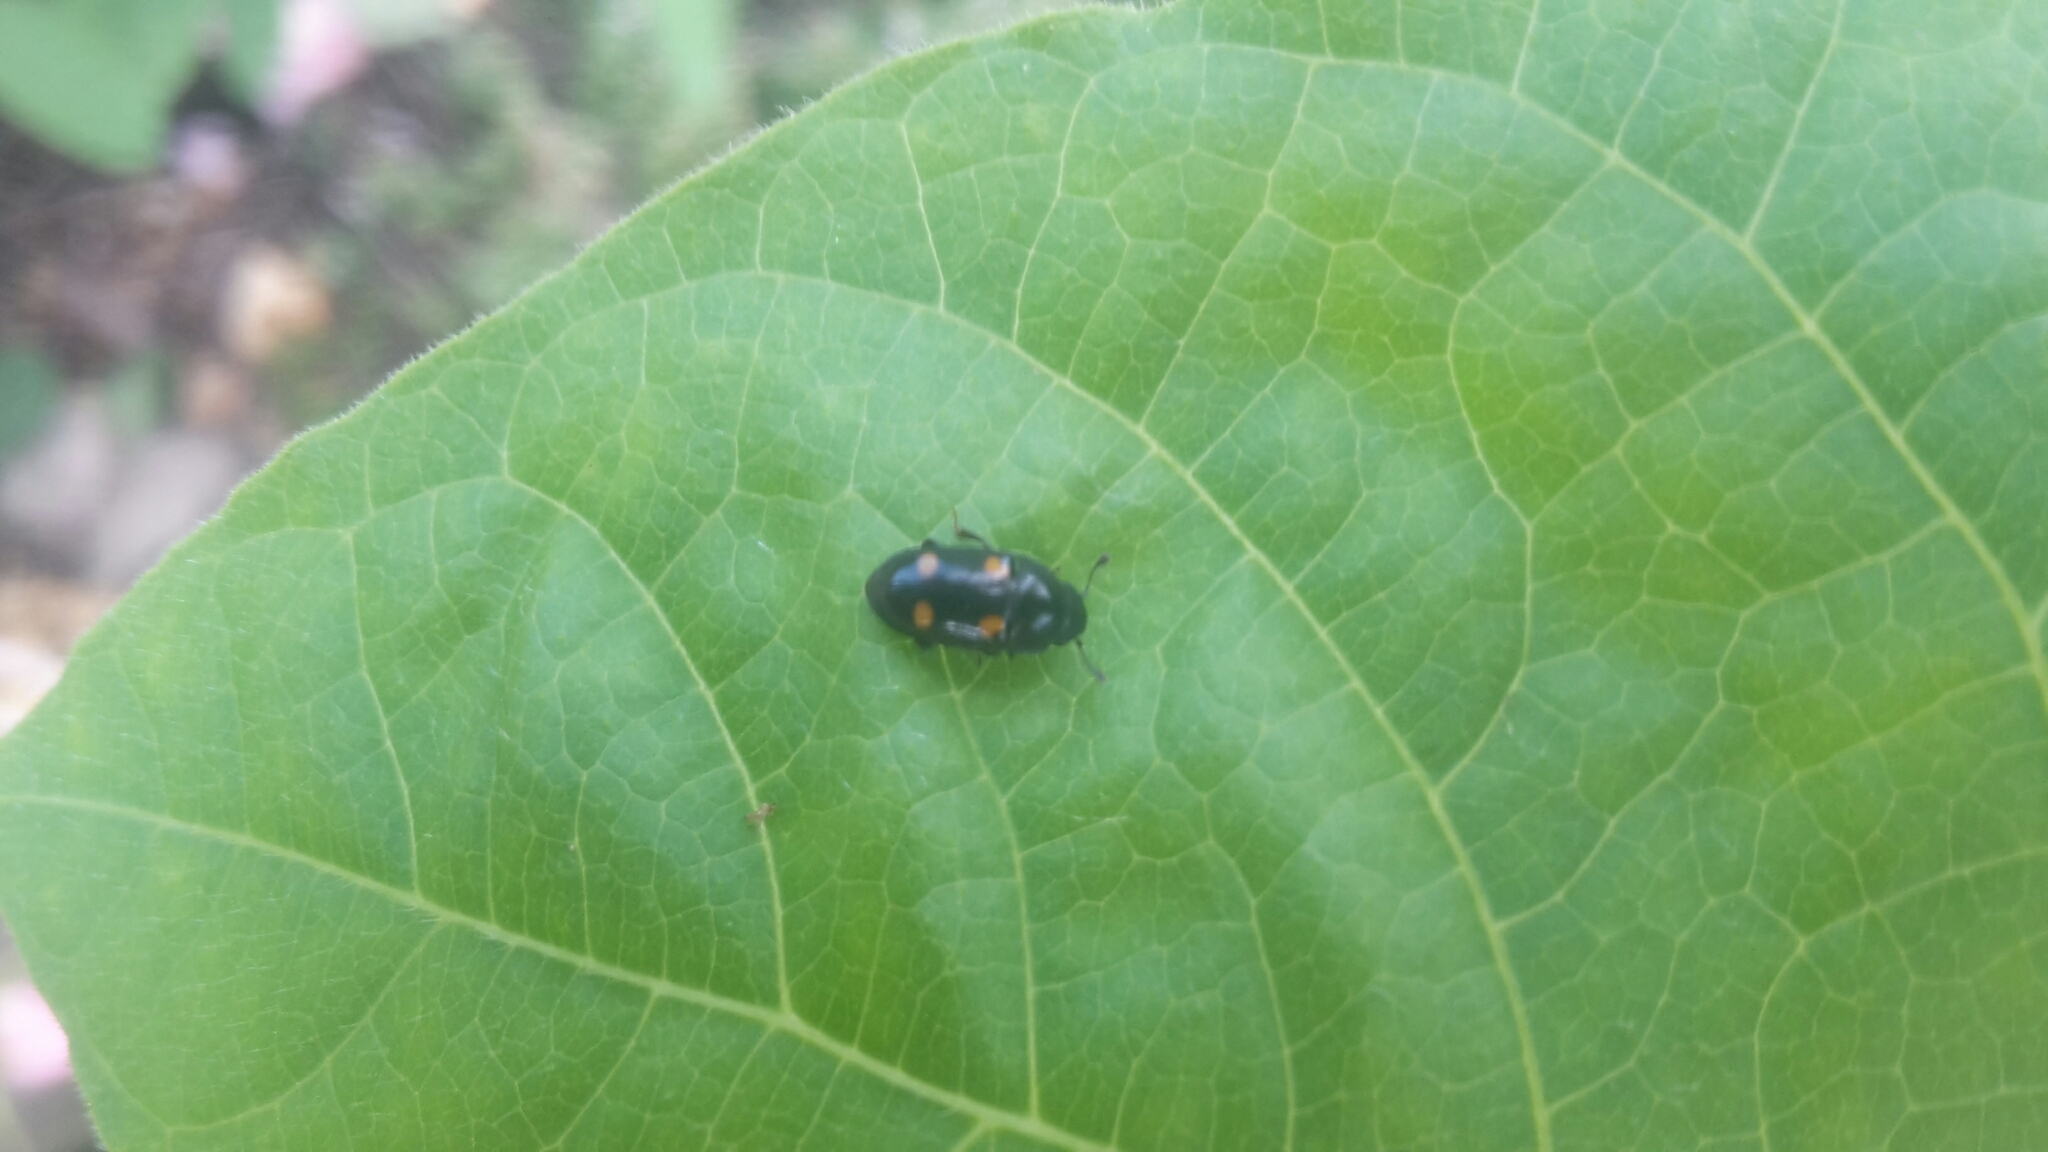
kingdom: Animalia
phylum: Arthropoda
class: Insecta
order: Coleoptera
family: Nitidulidae
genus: Glischrochilus
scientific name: Glischrochilus hortensis
